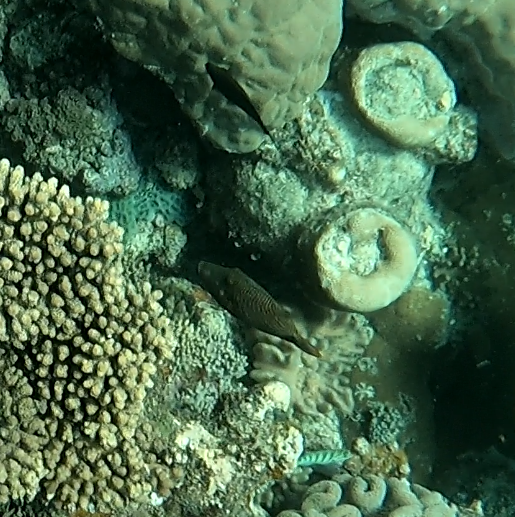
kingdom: Animalia
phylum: Chordata
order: Tetraodontiformes
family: Balistidae
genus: Balistapus
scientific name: Balistapus undulatus
